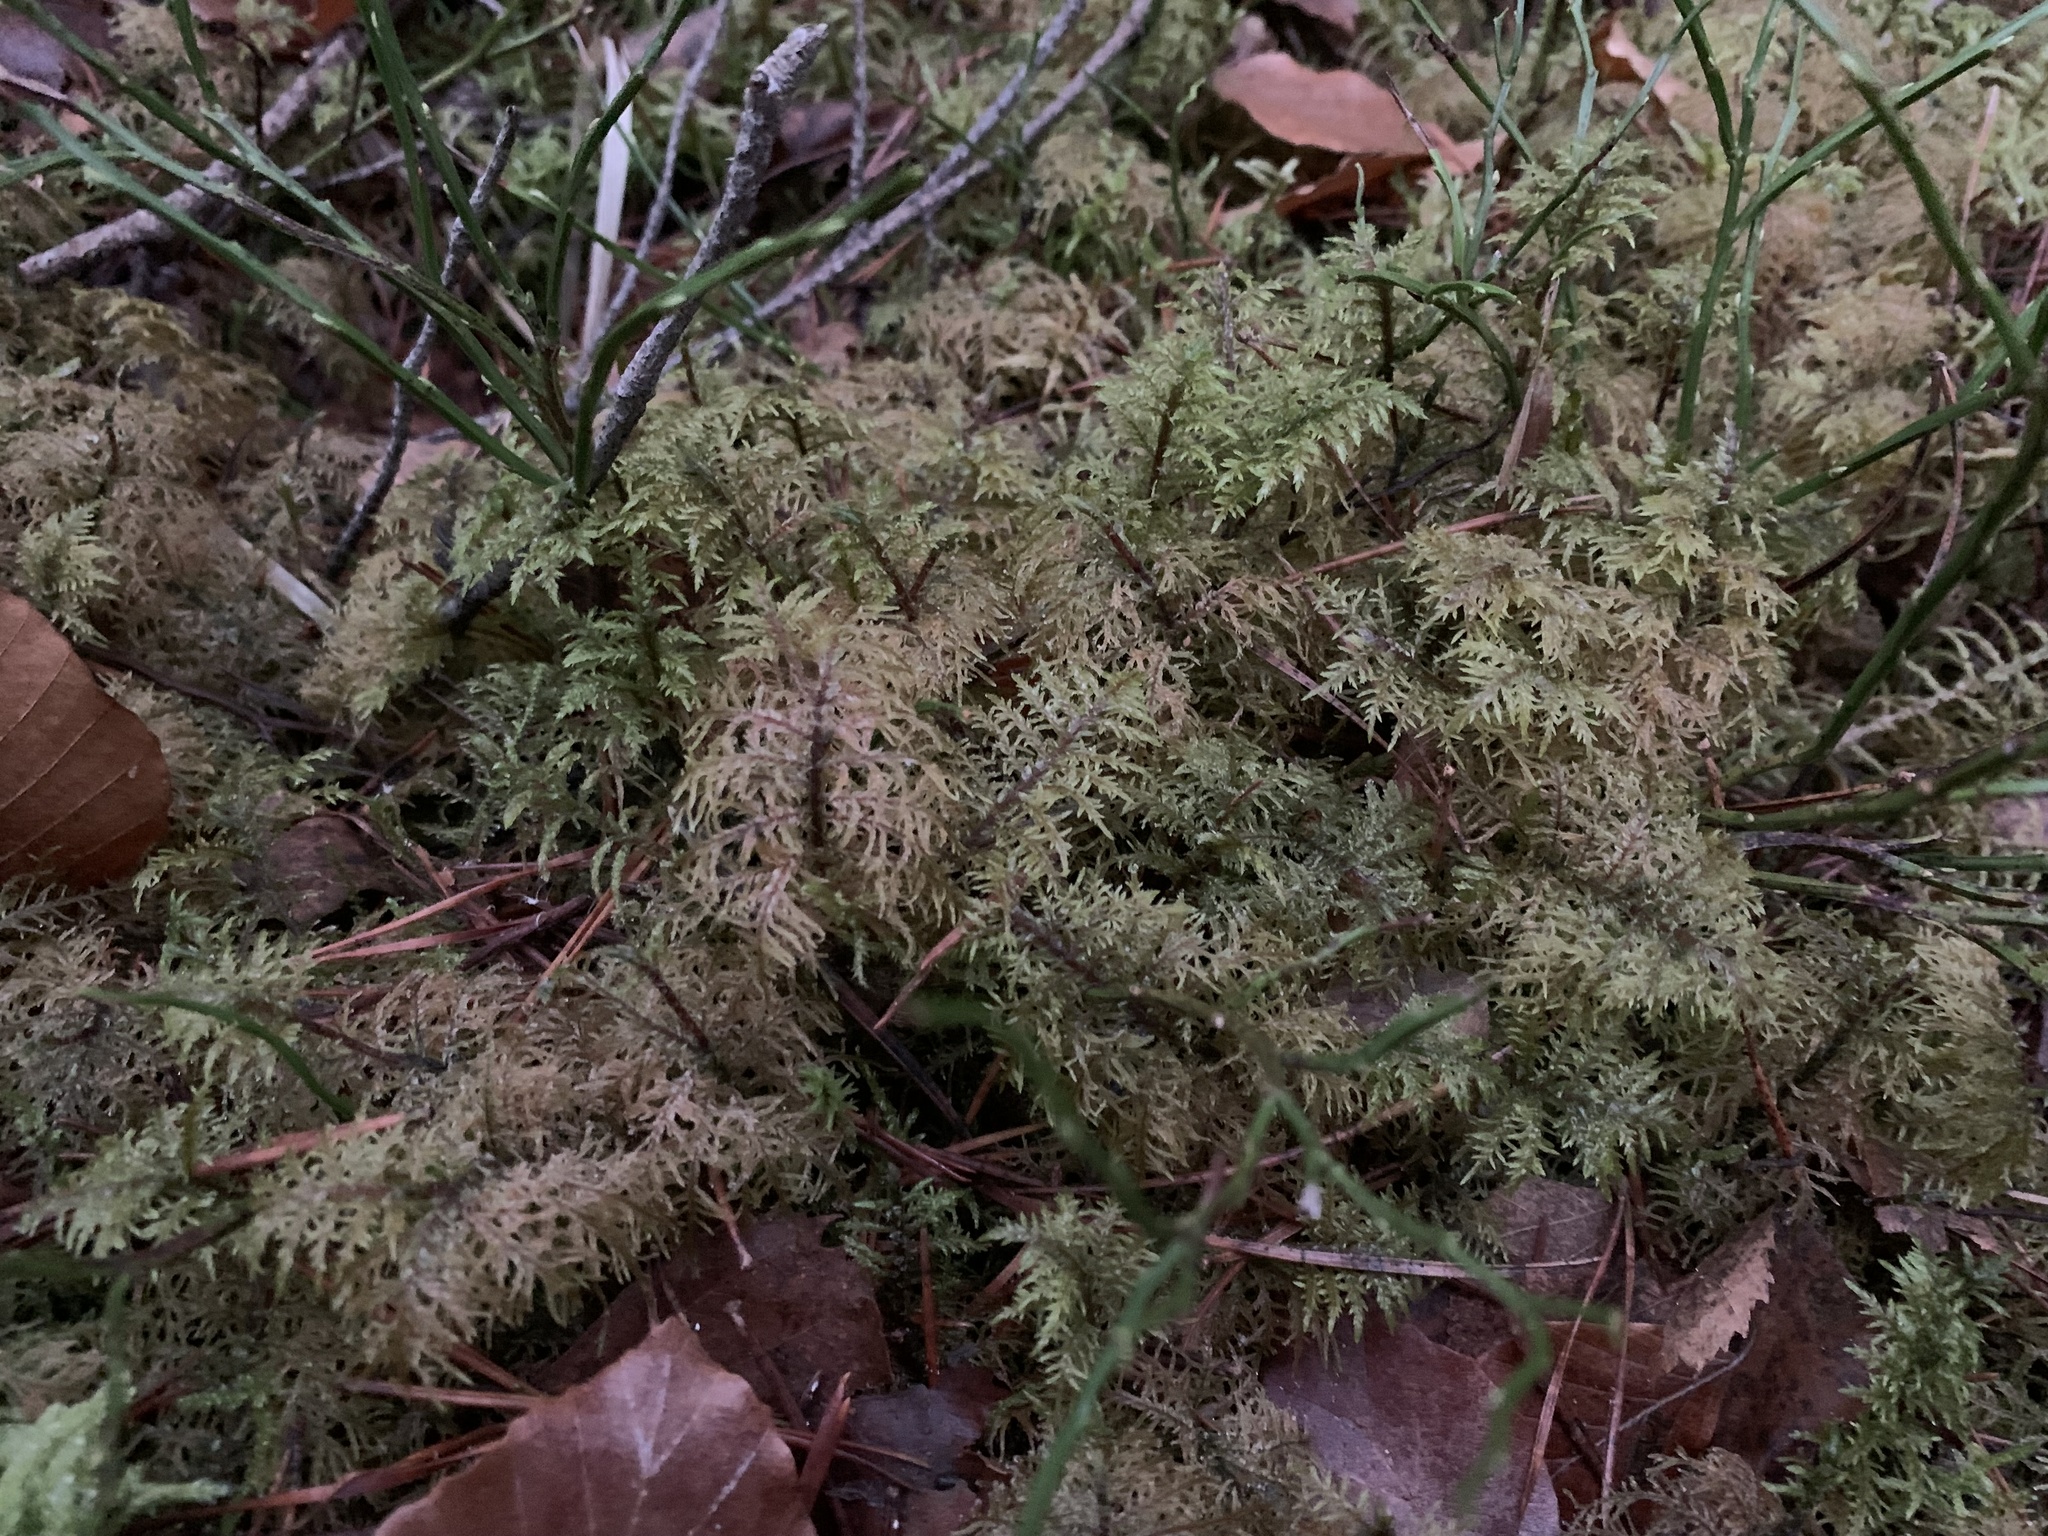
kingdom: Plantae
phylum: Bryophyta
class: Bryopsida
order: Hypnales
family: Hylocomiaceae
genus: Hylocomium
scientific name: Hylocomium splendens
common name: Stairstep moss
